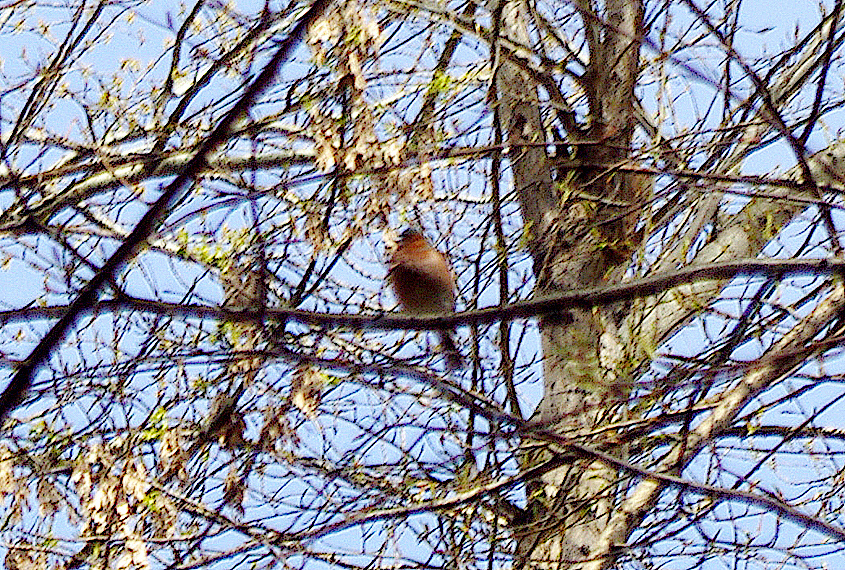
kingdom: Animalia
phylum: Chordata
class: Aves
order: Passeriformes
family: Fringillidae
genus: Fringilla
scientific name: Fringilla coelebs
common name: Common chaffinch
